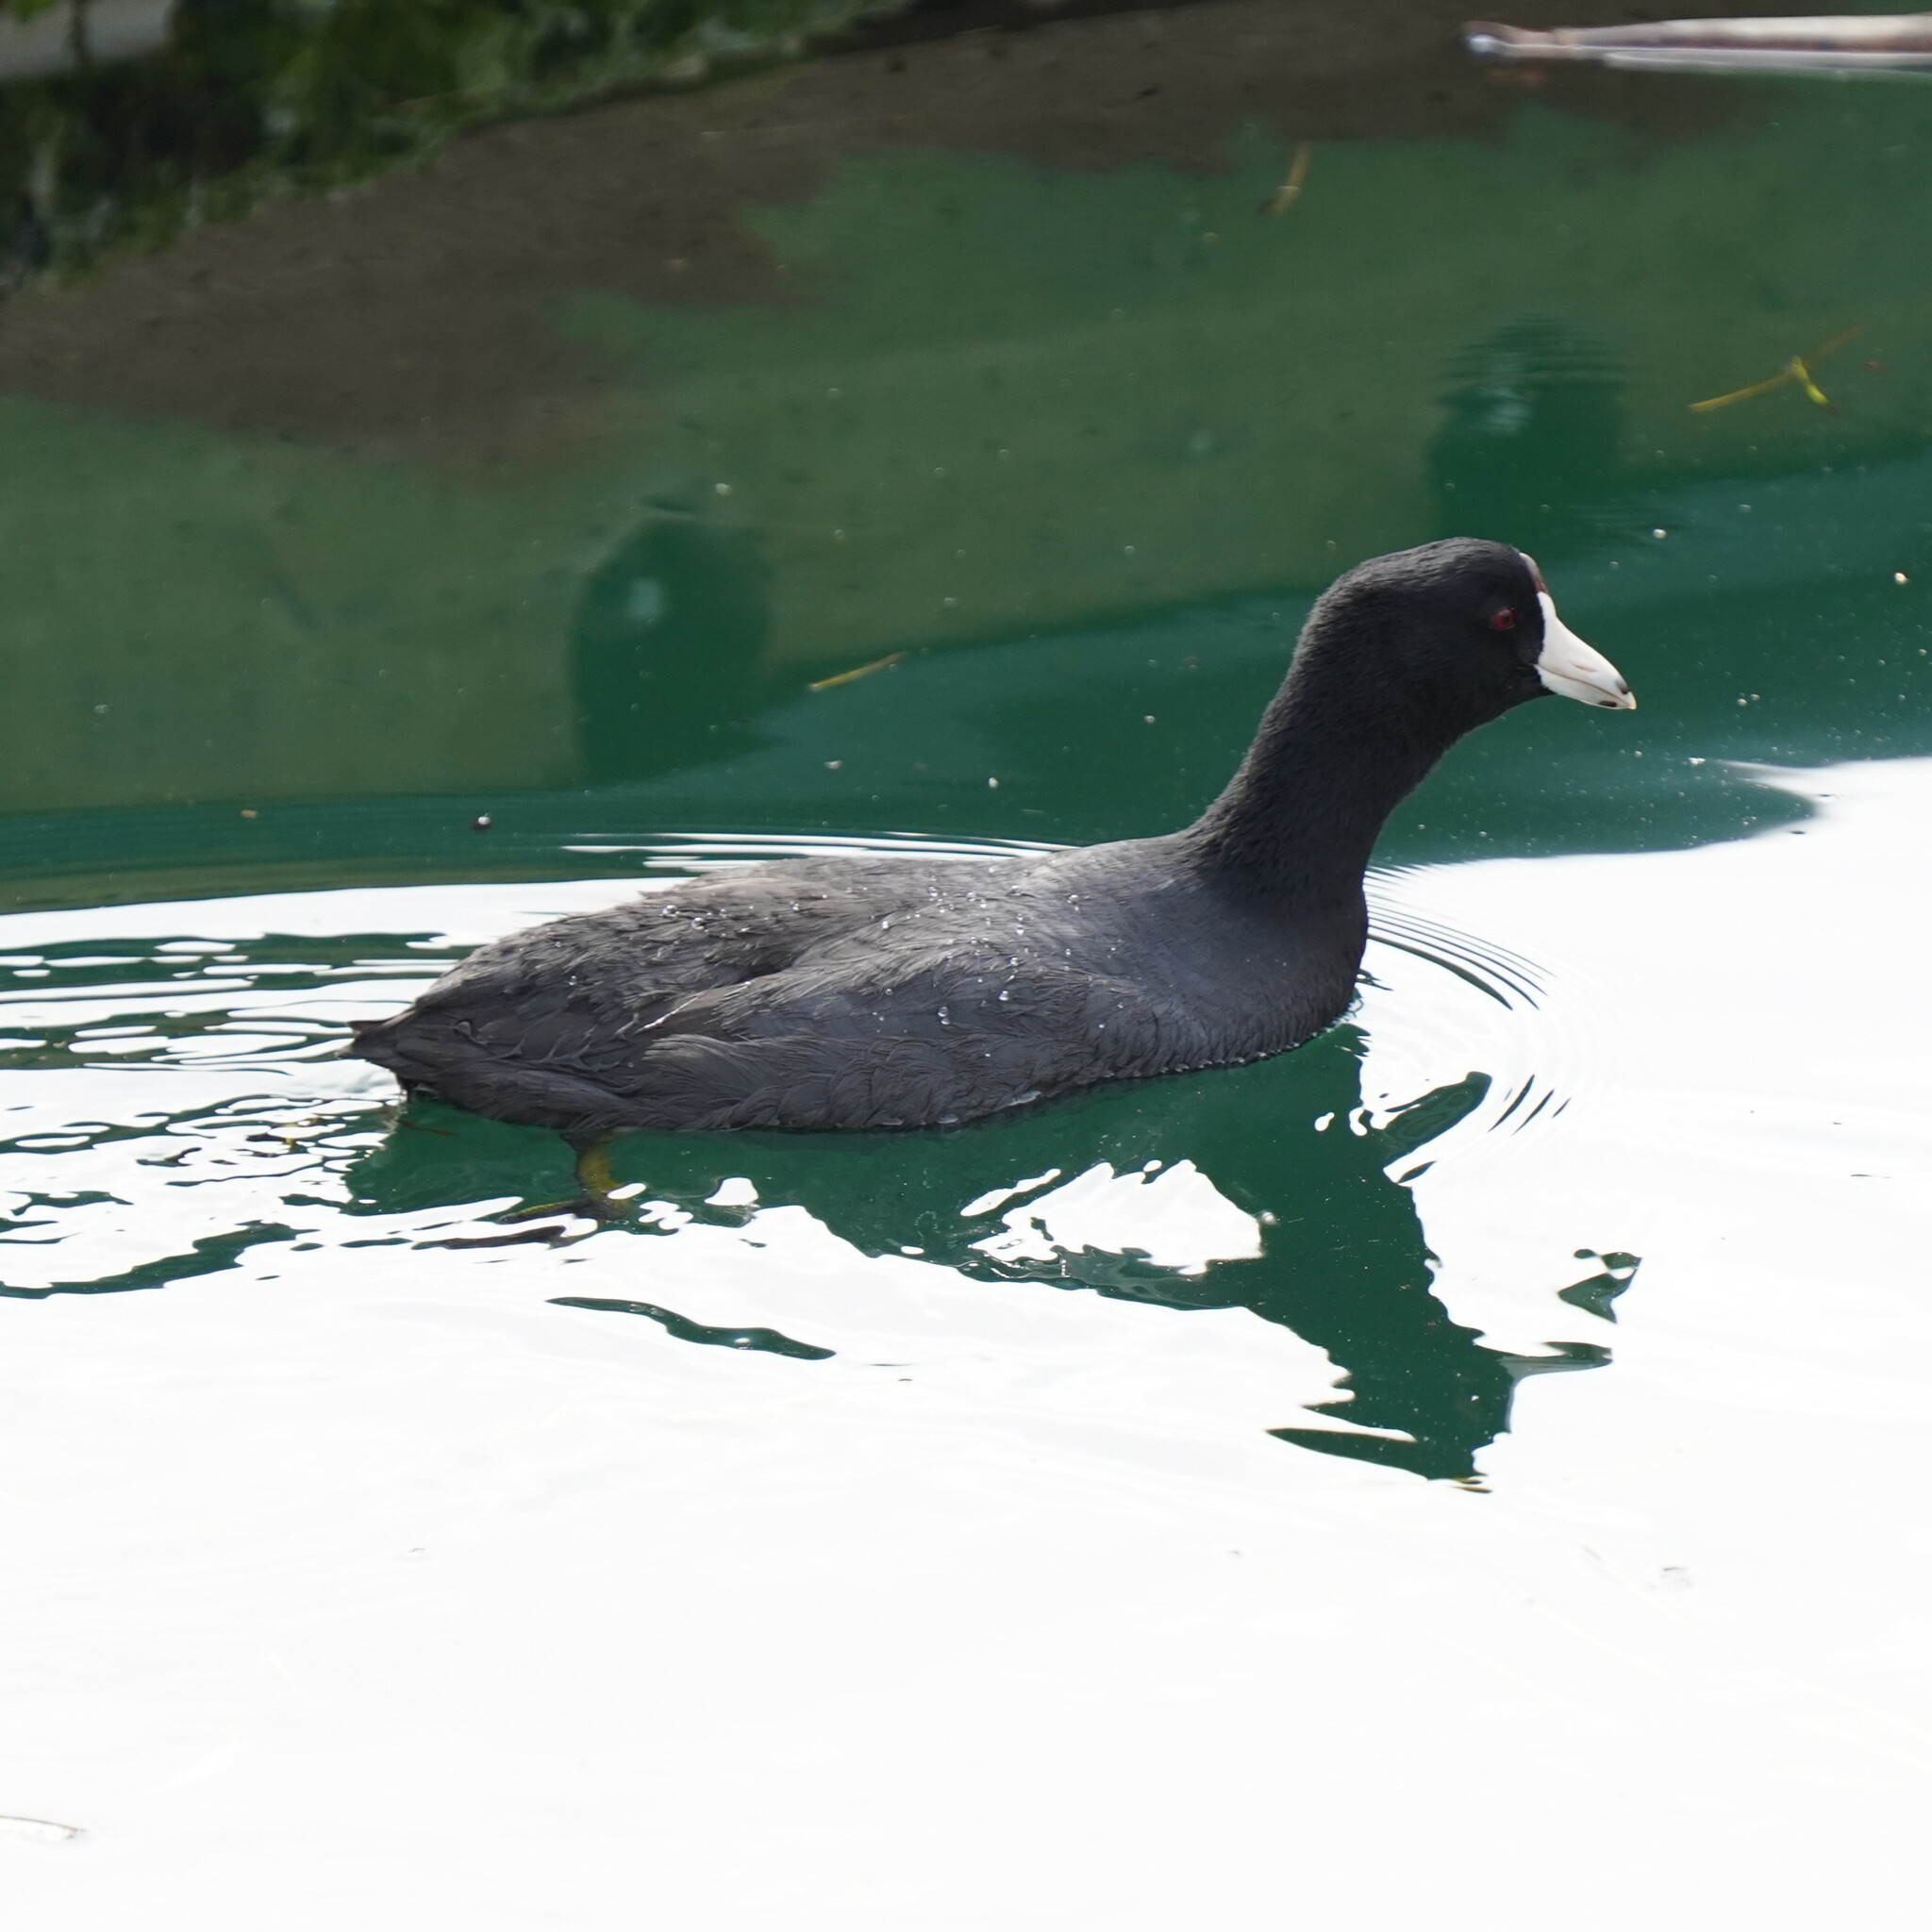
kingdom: Animalia
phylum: Chordata
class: Aves
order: Gruiformes
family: Rallidae
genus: Fulica
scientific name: Fulica americana
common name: American coot
